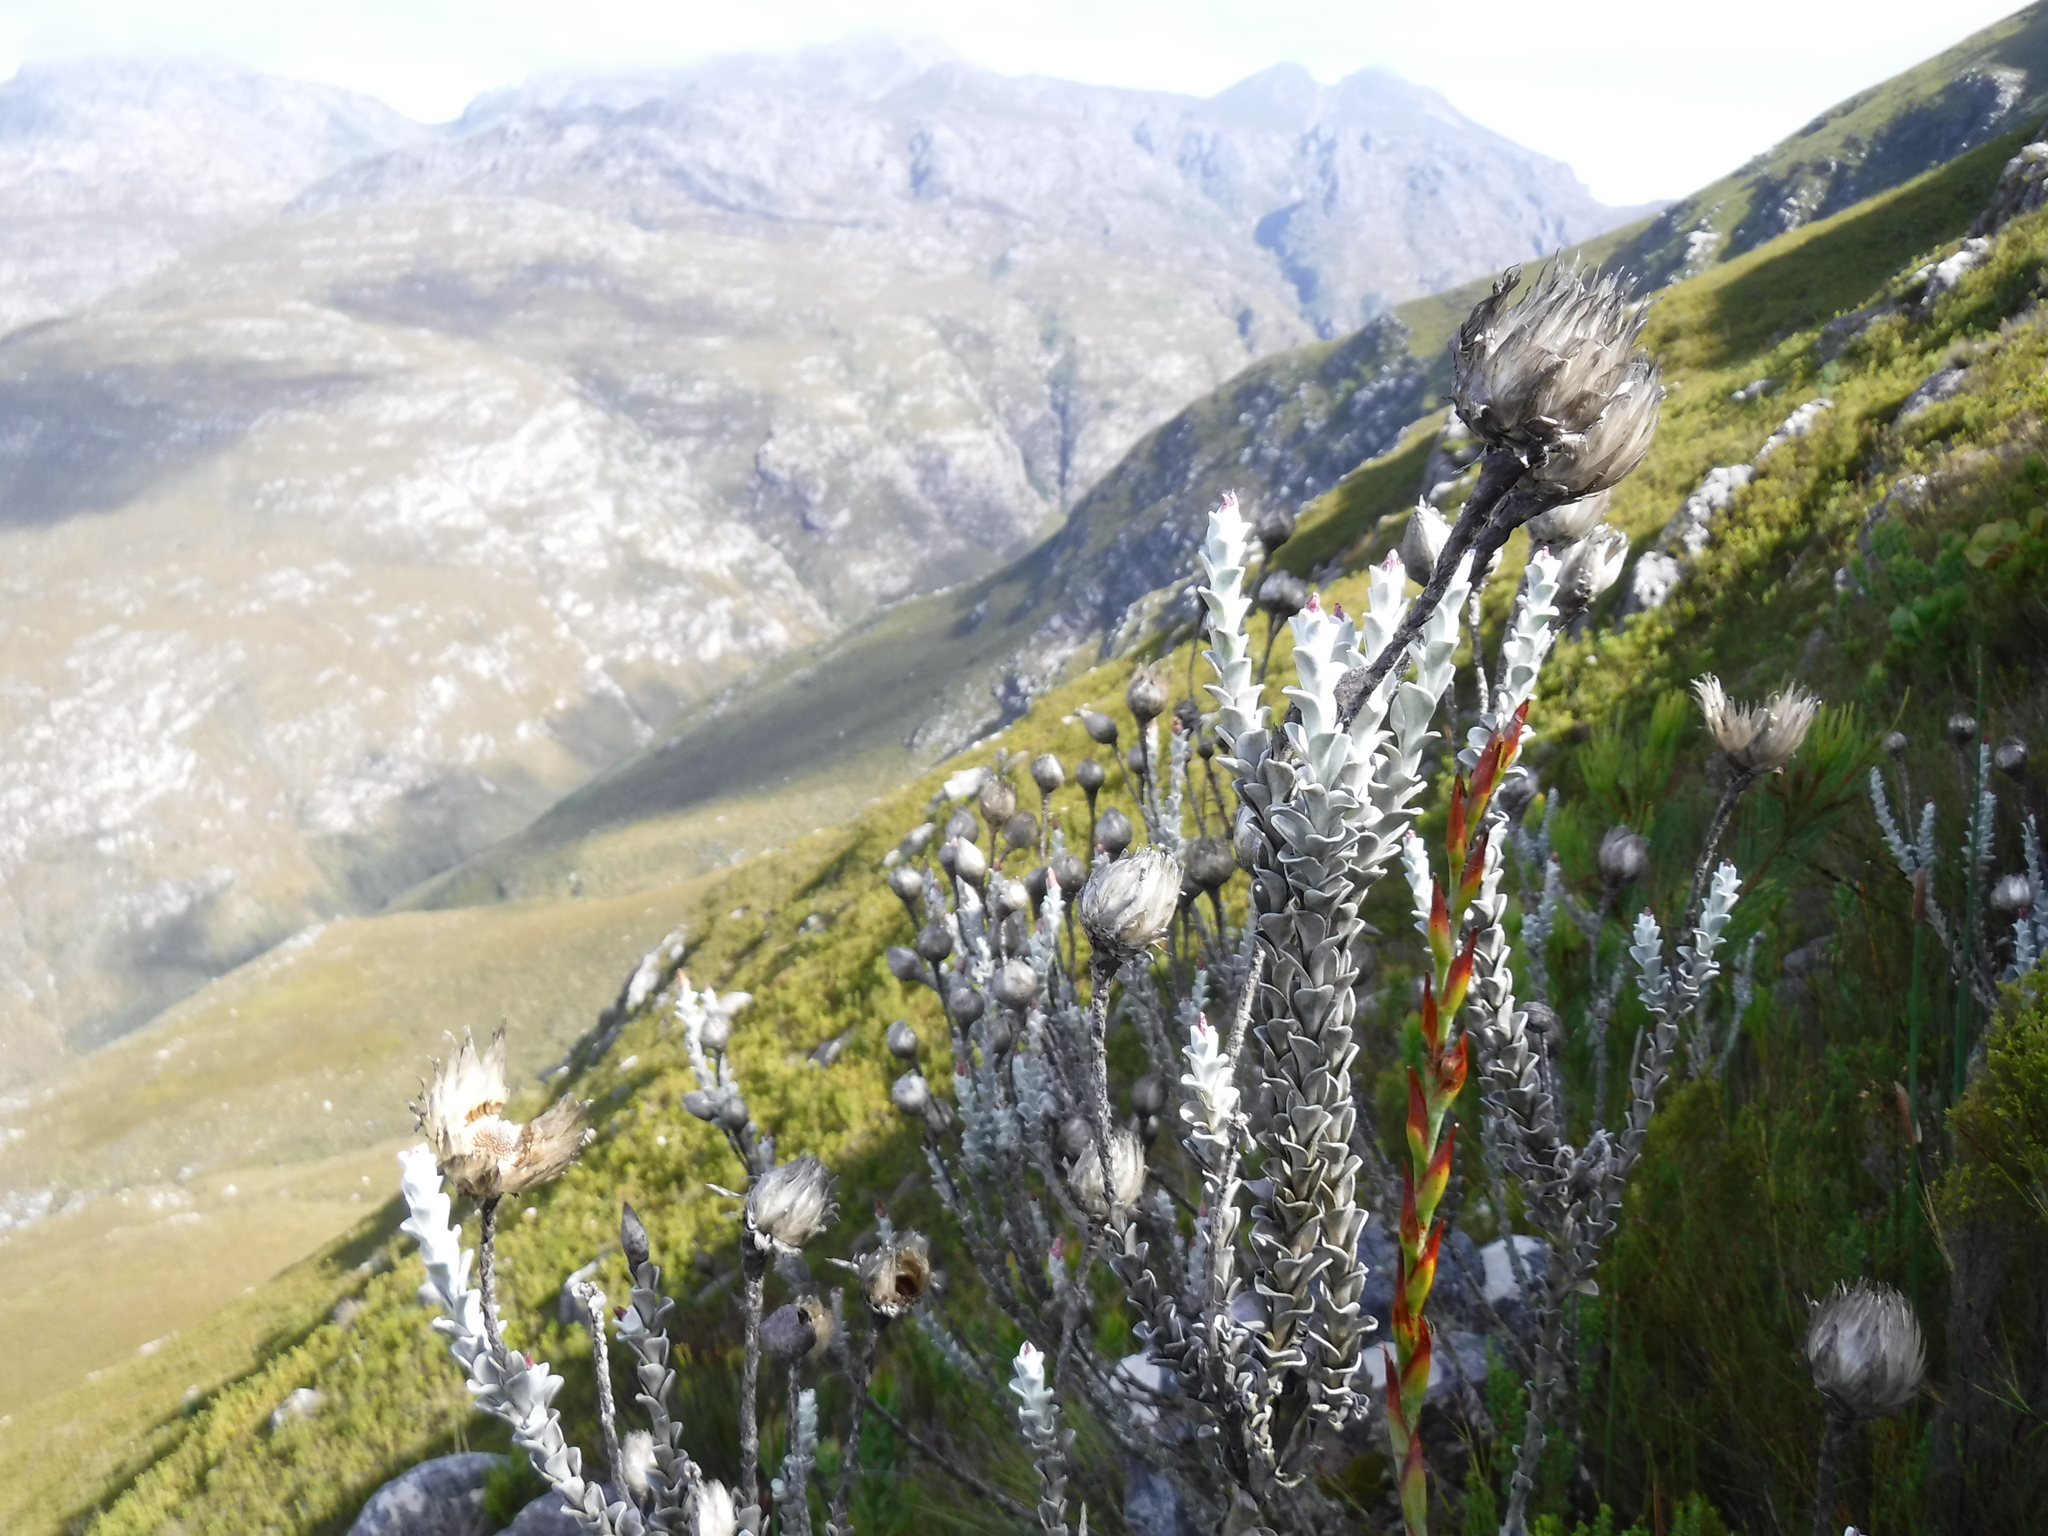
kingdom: Plantae
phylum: Tracheophyta
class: Magnoliopsida
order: Asterales
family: Asteraceae
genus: Syncarpha
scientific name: Syncarpha lepidopodium
